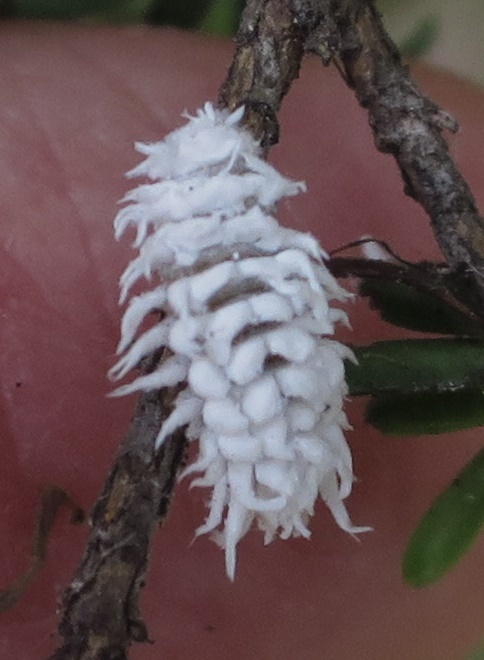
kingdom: Animalia
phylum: Arthropoda
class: Insecta
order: Coleoptera
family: Coccinellidae
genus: Cryptolaemus
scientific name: Cryptolaemus montrouzieri
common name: Mealybug destroyer
